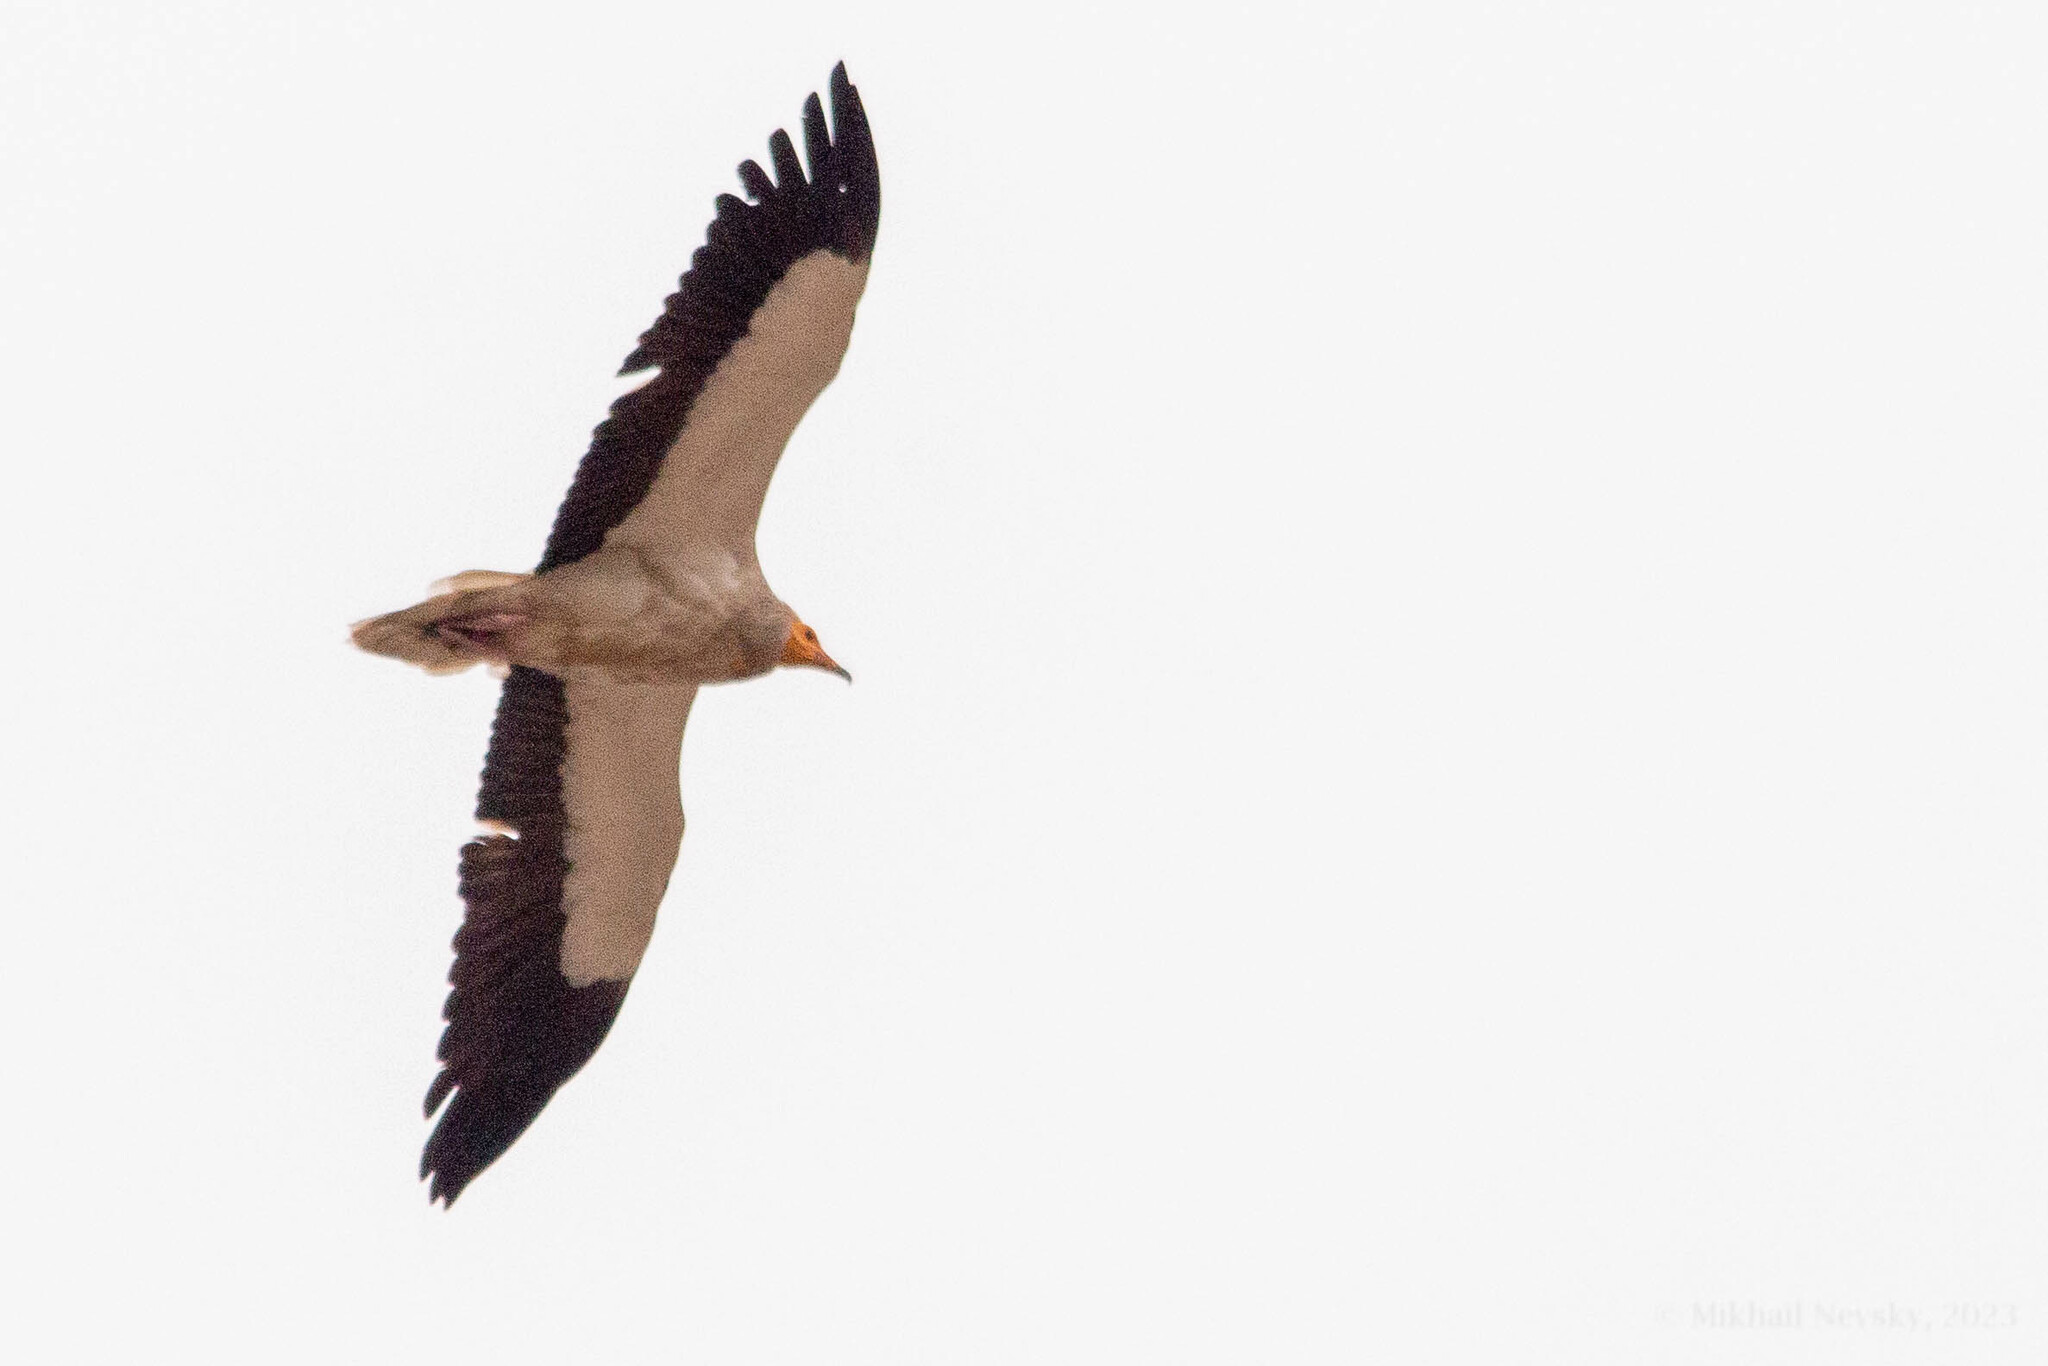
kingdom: Animalia
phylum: Chordata
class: Aves
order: Accipitriformes
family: Accipitridae
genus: Neophron
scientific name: Neophron percnopterus
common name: Egyptian vulture
